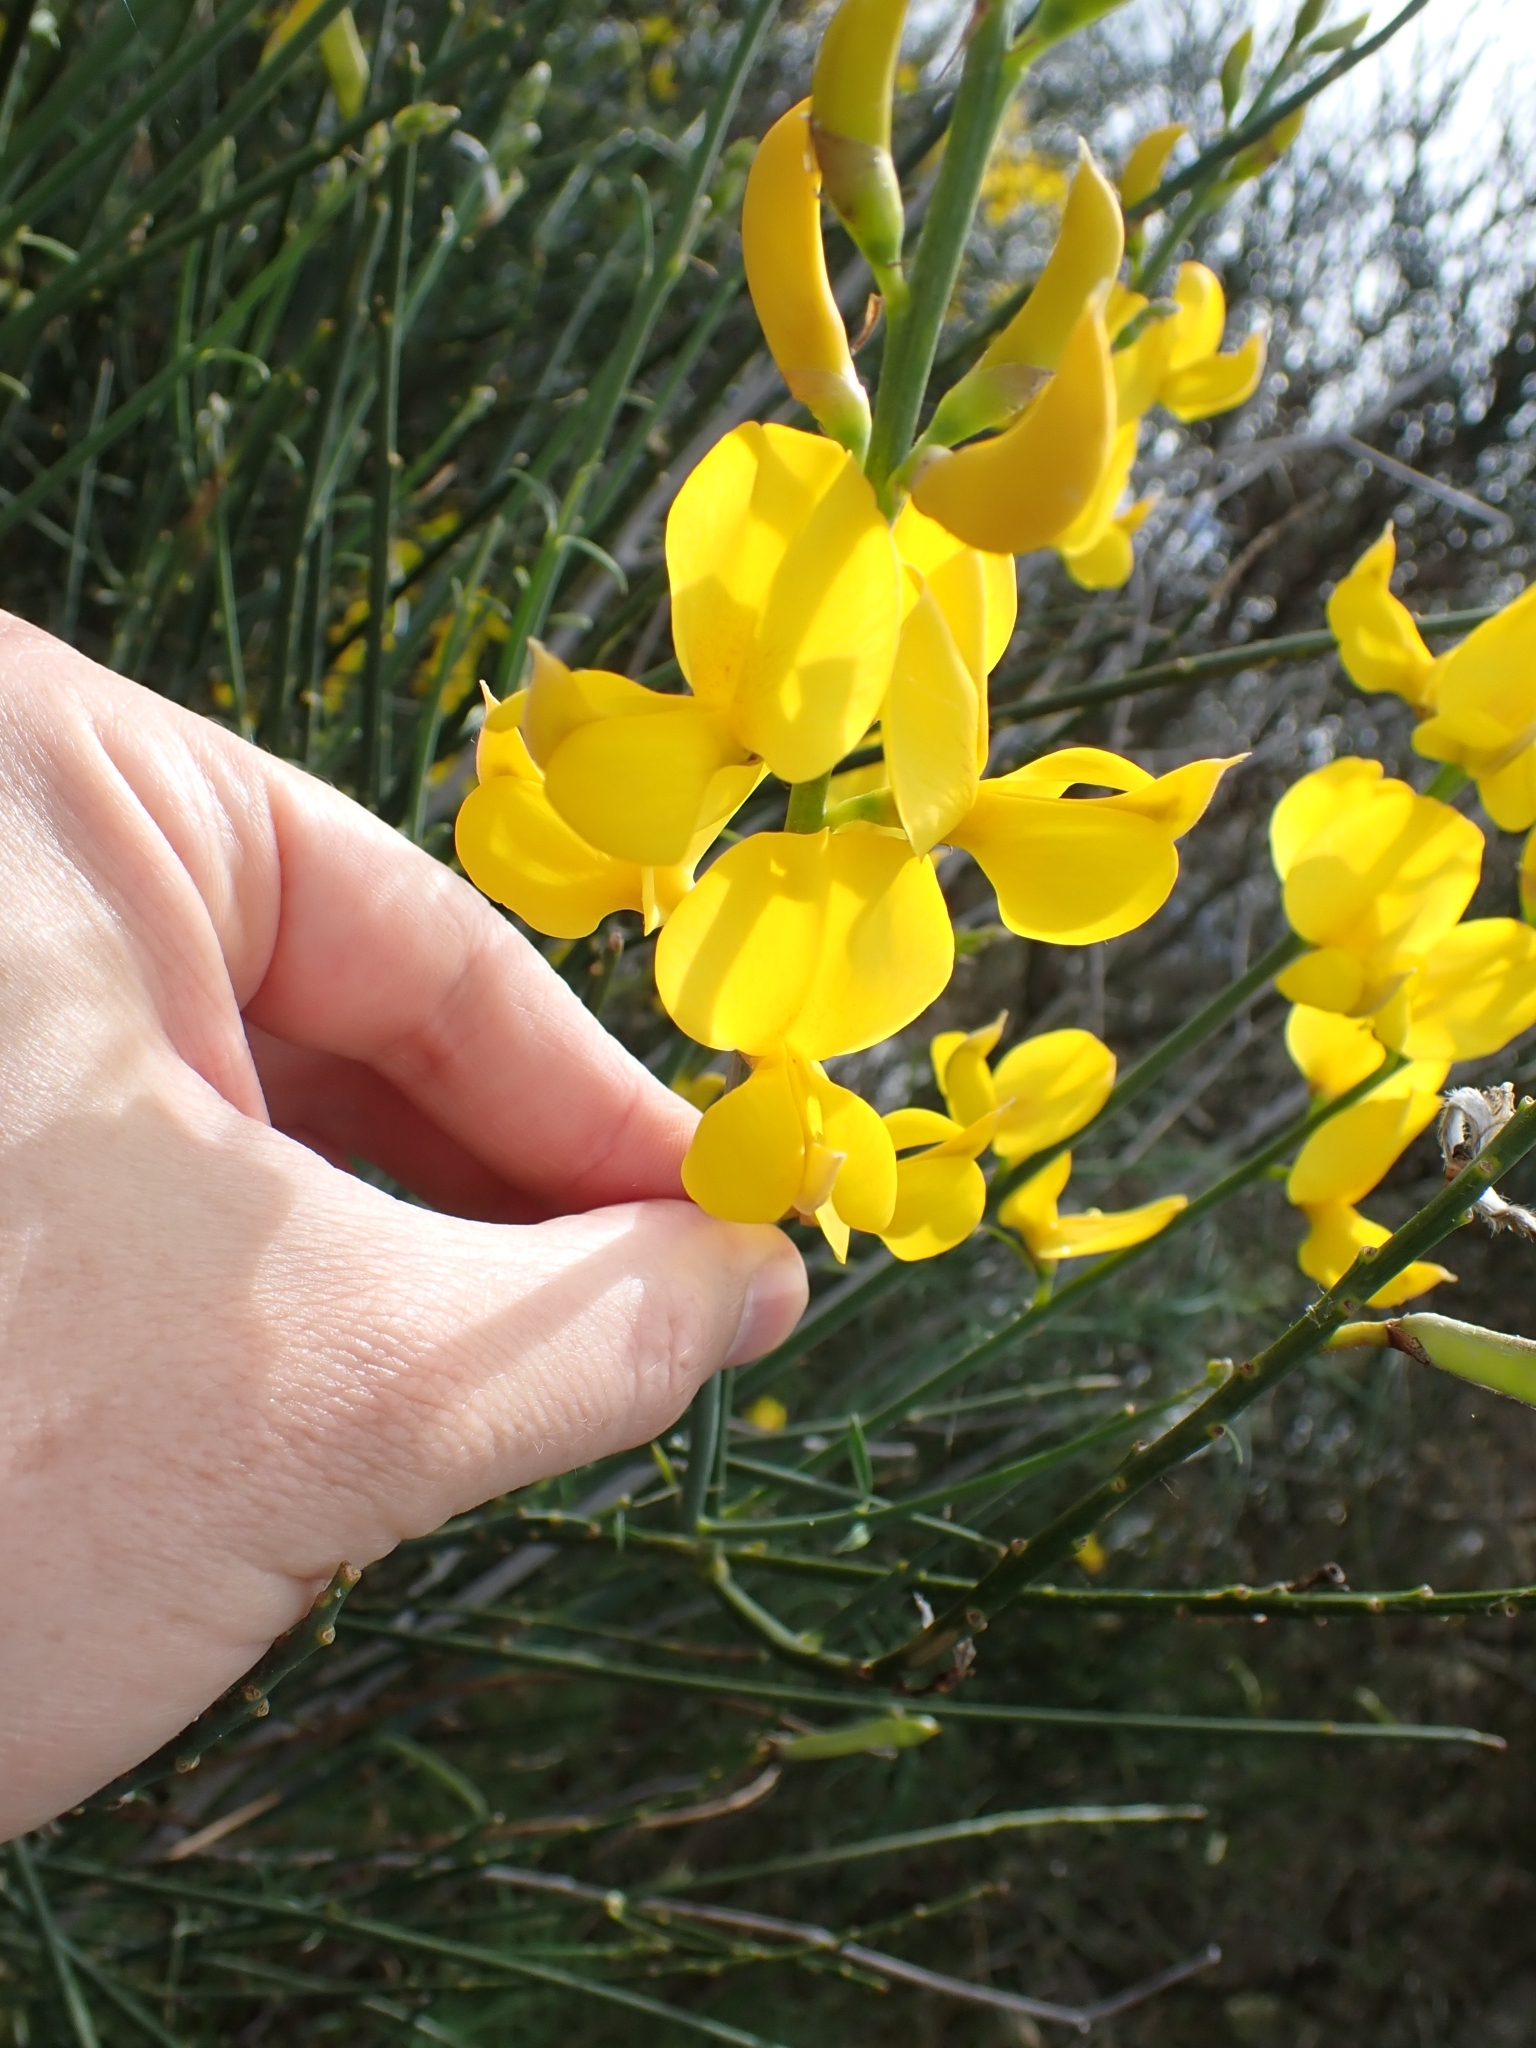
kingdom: Plantae
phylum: Tracheophyta
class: Magnoliopsida
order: Fabales
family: Fabaceae
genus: Cytisus
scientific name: Cytisus scoparius
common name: Scotch broom
